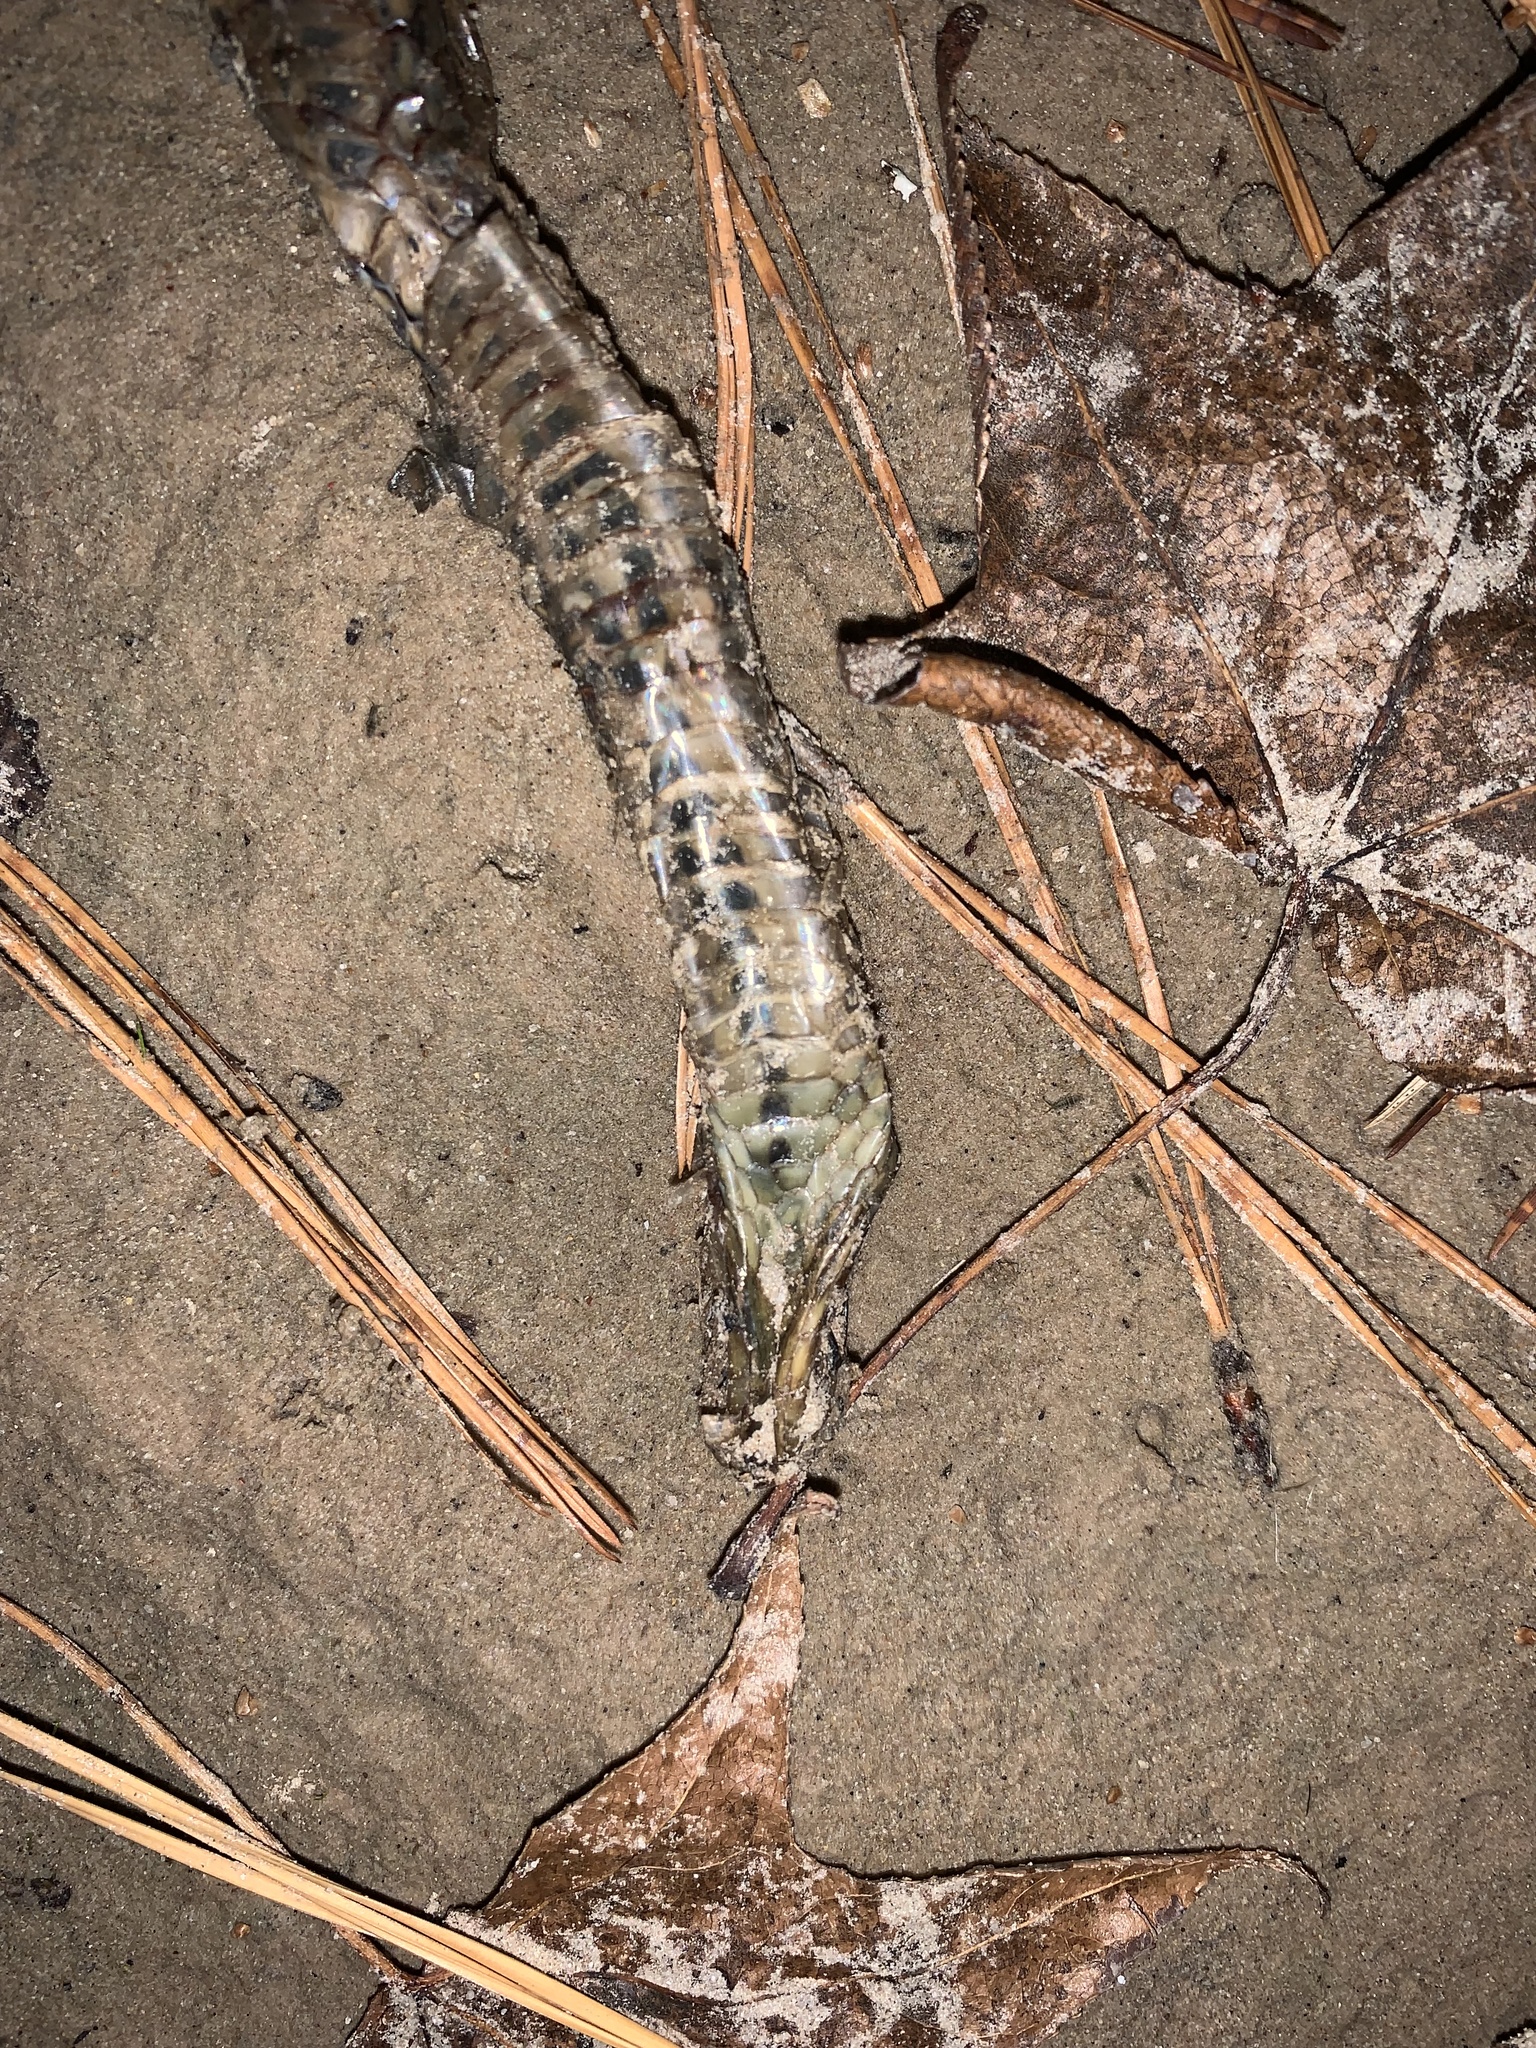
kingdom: Animalia
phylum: Chordata
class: Squamata
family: Colubridae
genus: Liodytes
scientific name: Liodytes rigida
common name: Crayfish snake
